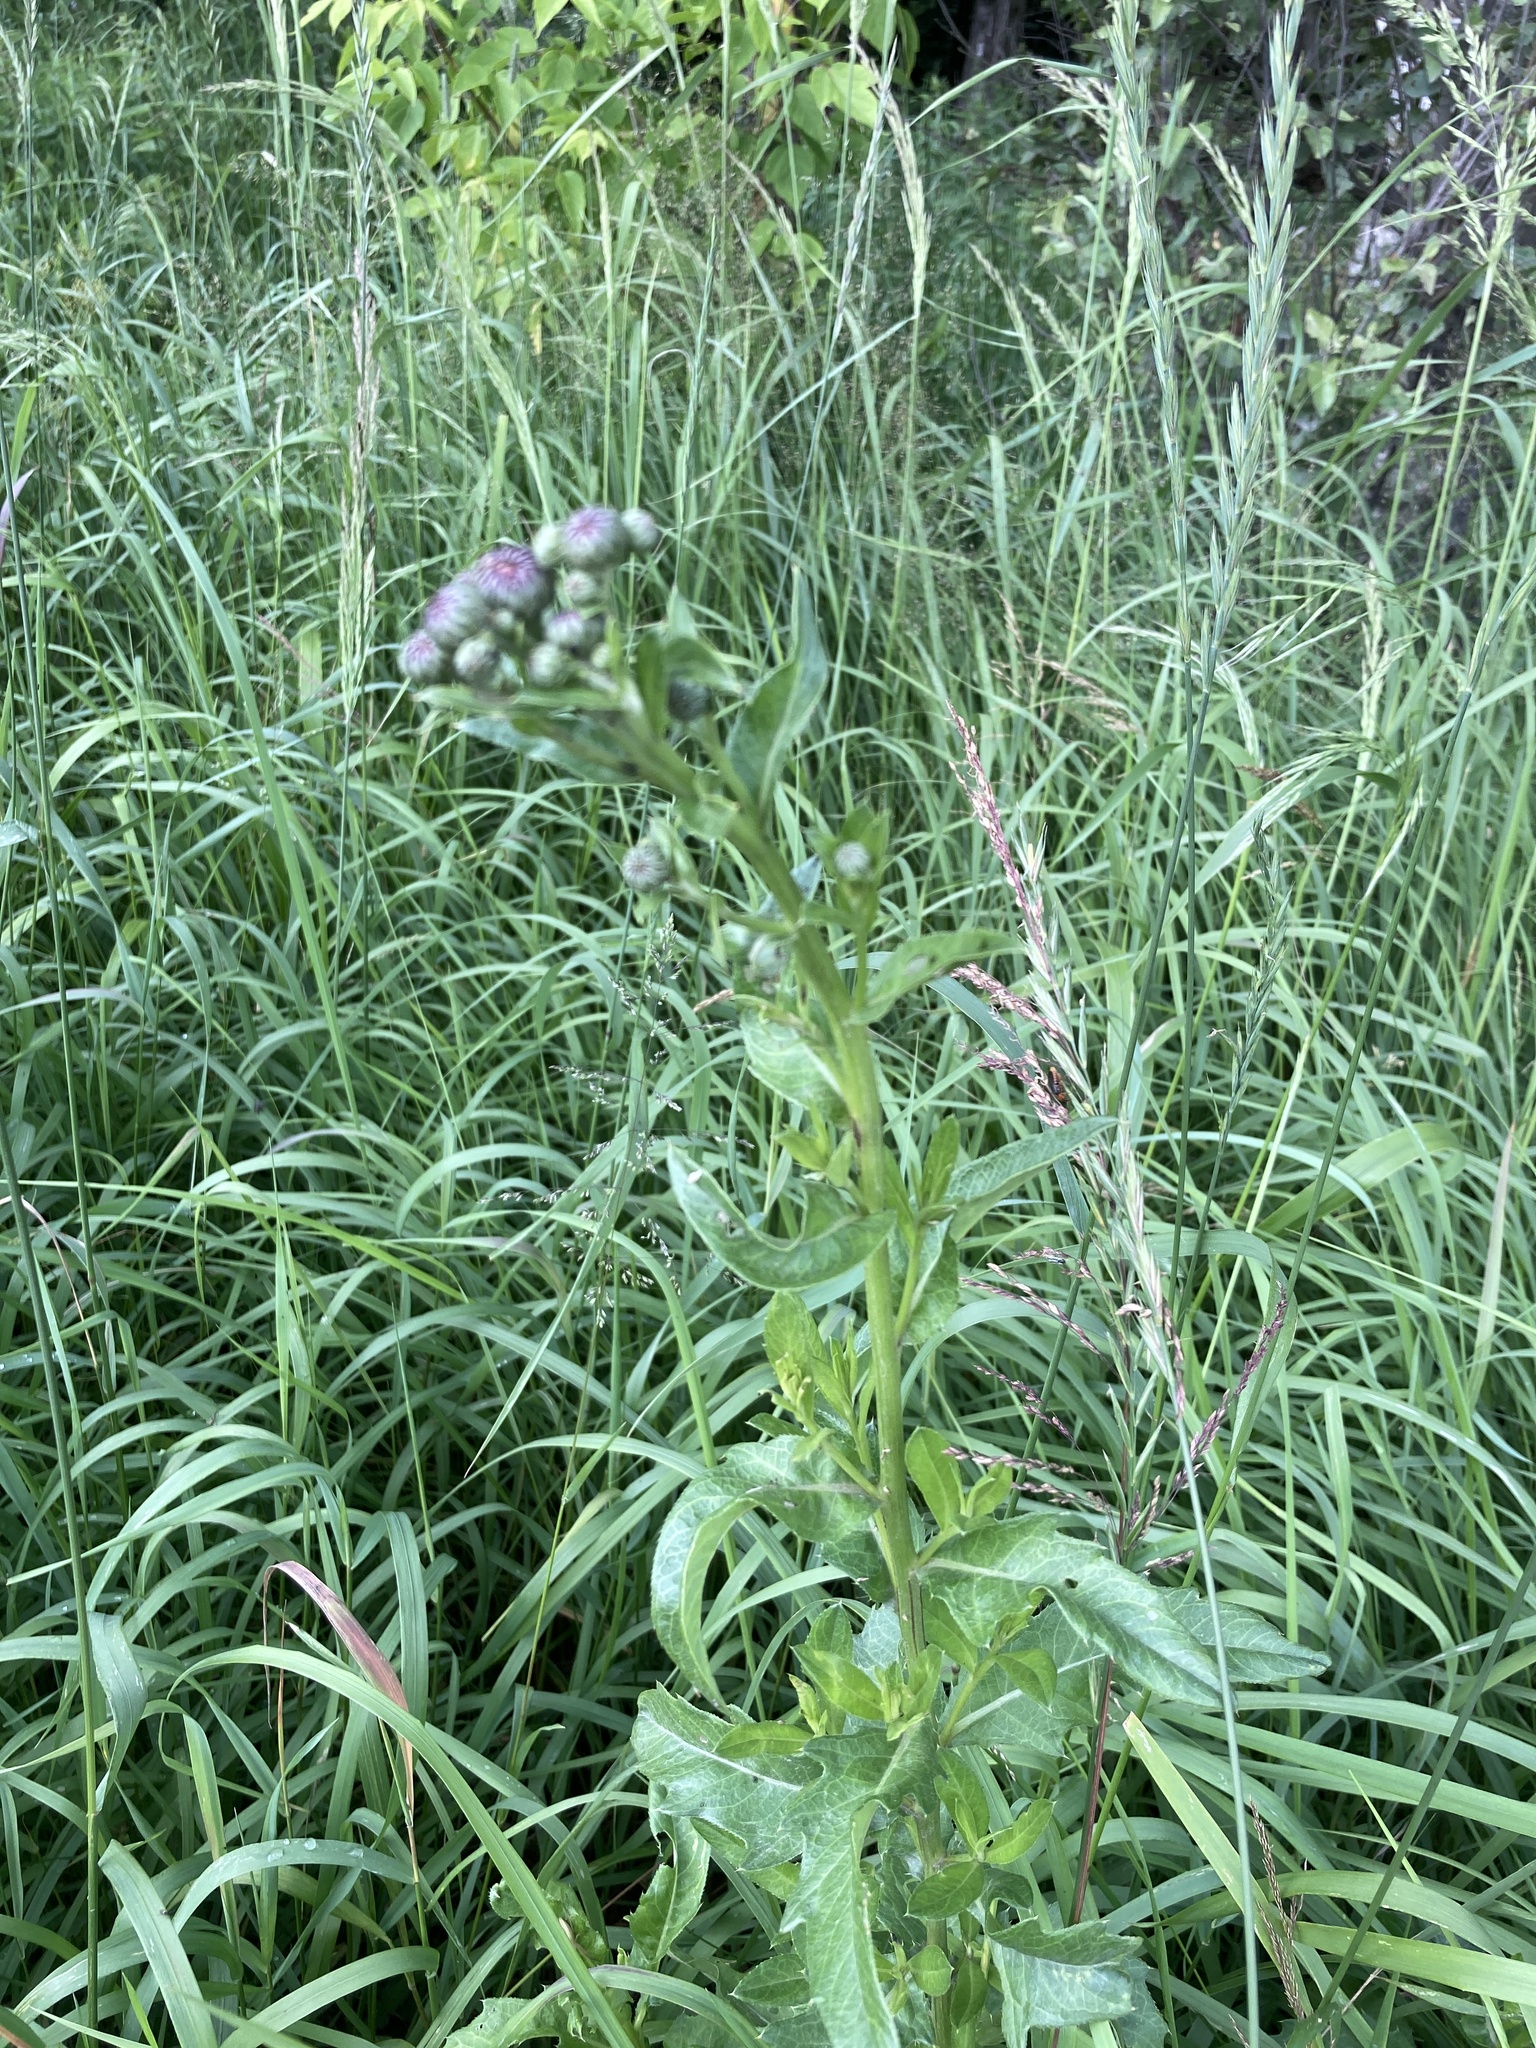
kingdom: Plantae
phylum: Tracheophyta
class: Magnoliopsida
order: Asterales
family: Asteraceae
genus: Cirsium
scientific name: Cirsium arvense
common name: Creeping thistle
